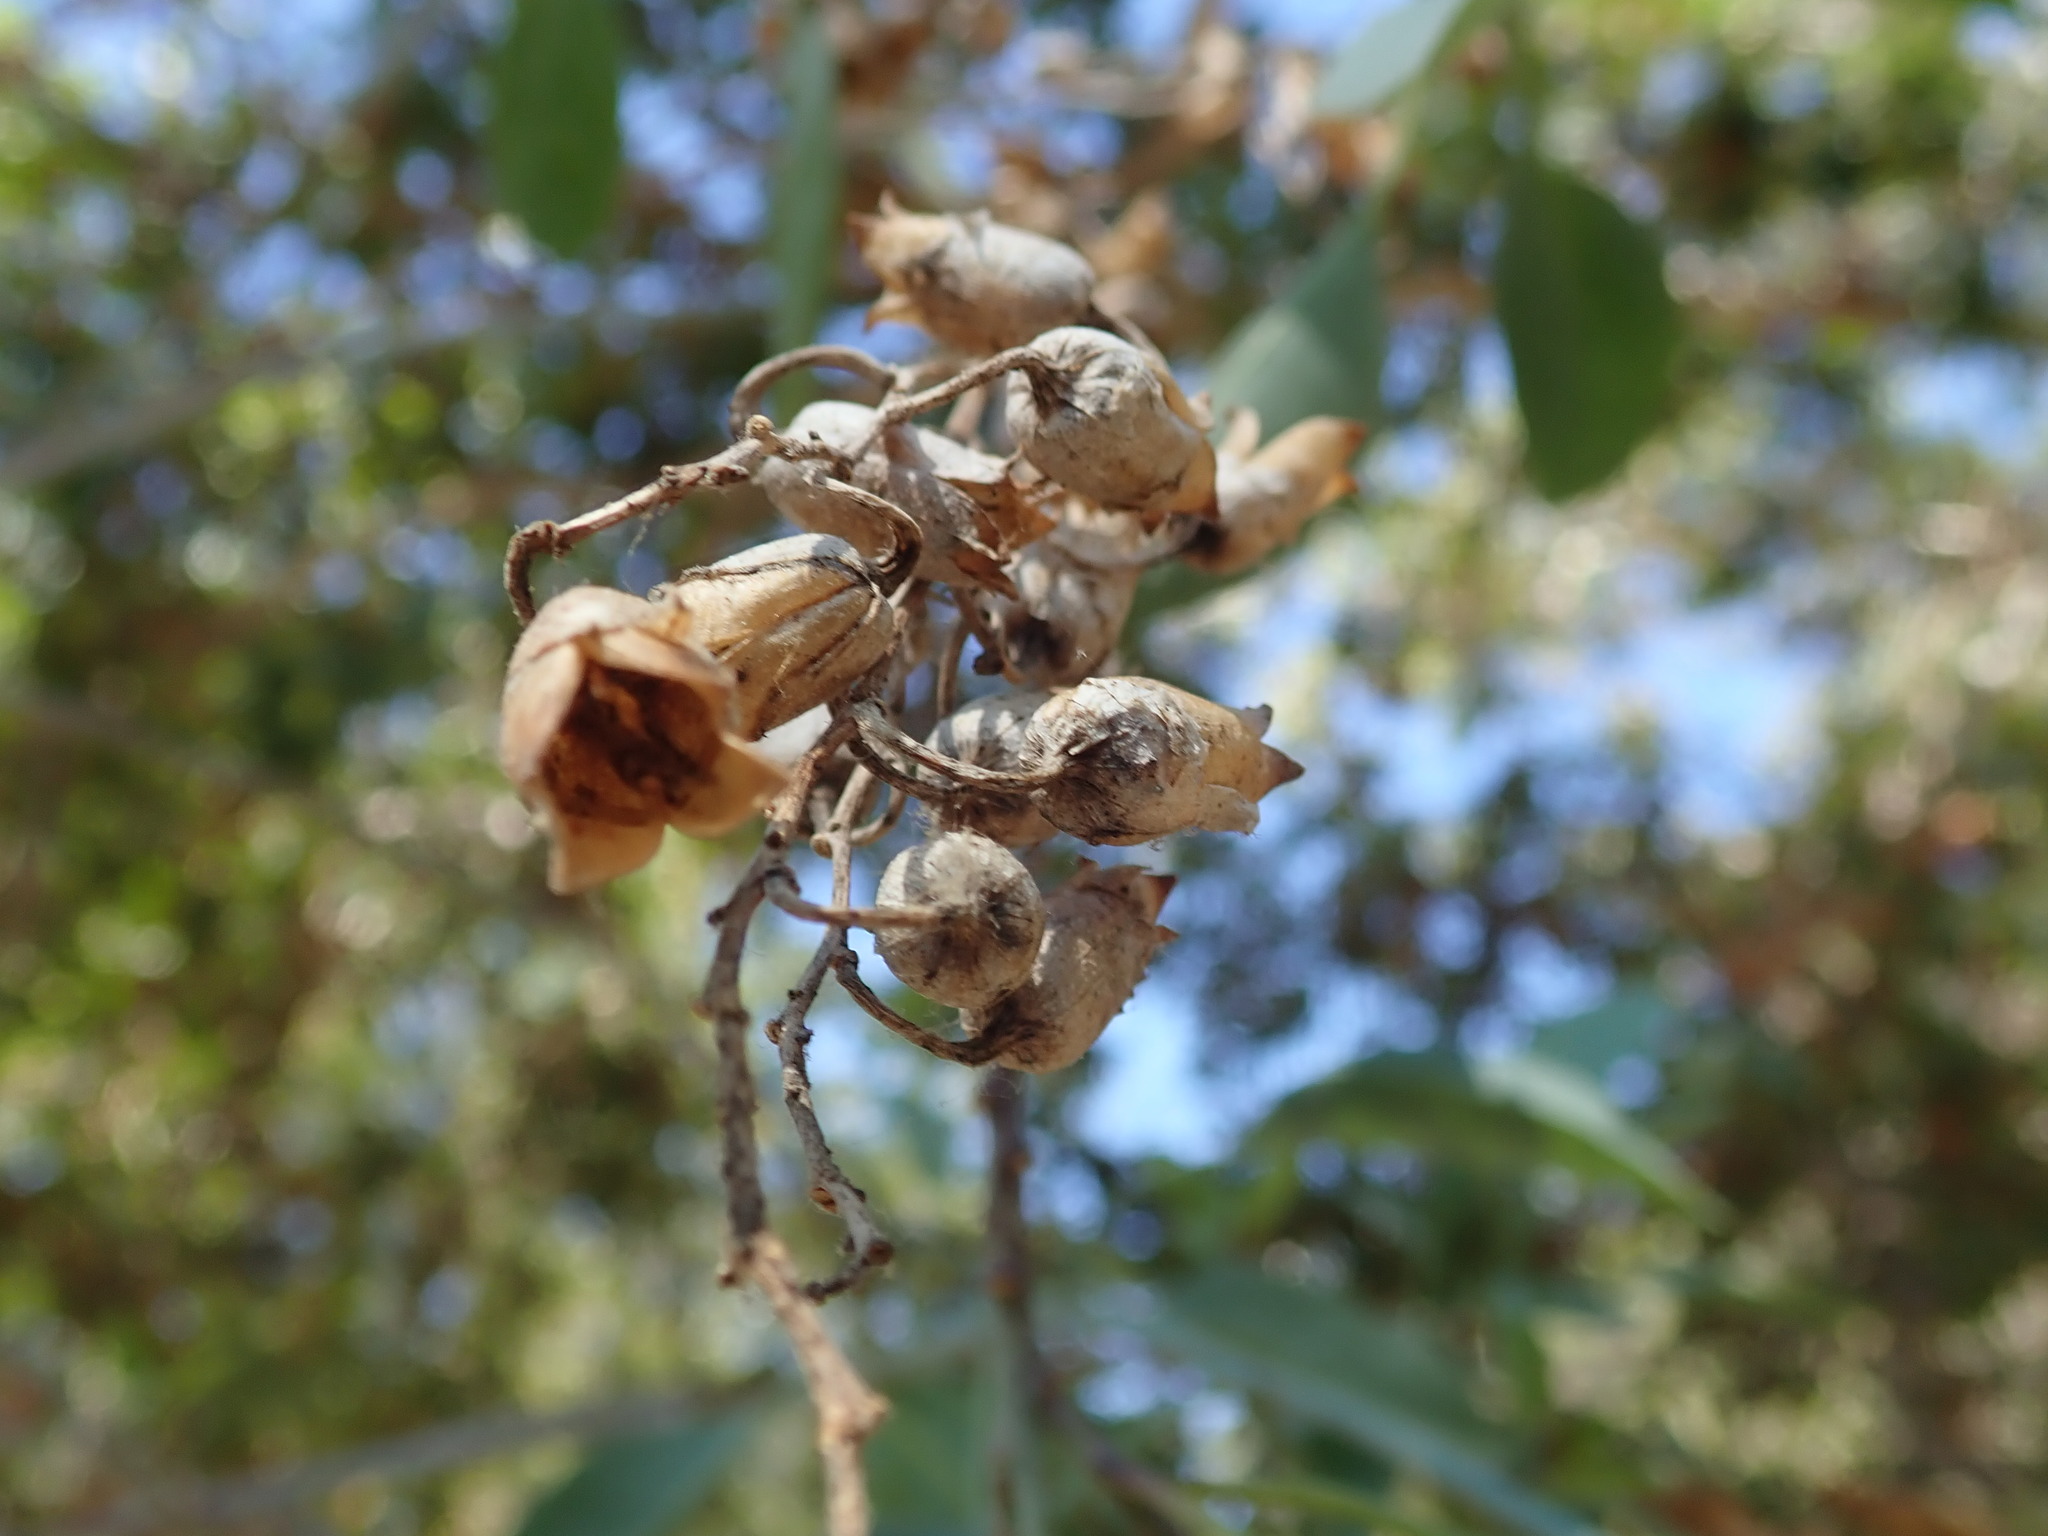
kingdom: Plantae
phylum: Tracheophyta
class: Magnoliopsida
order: Solanales
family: Solanaceae
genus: Nicotiana
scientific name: Nicotiana glauca
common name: Tree tobacco
